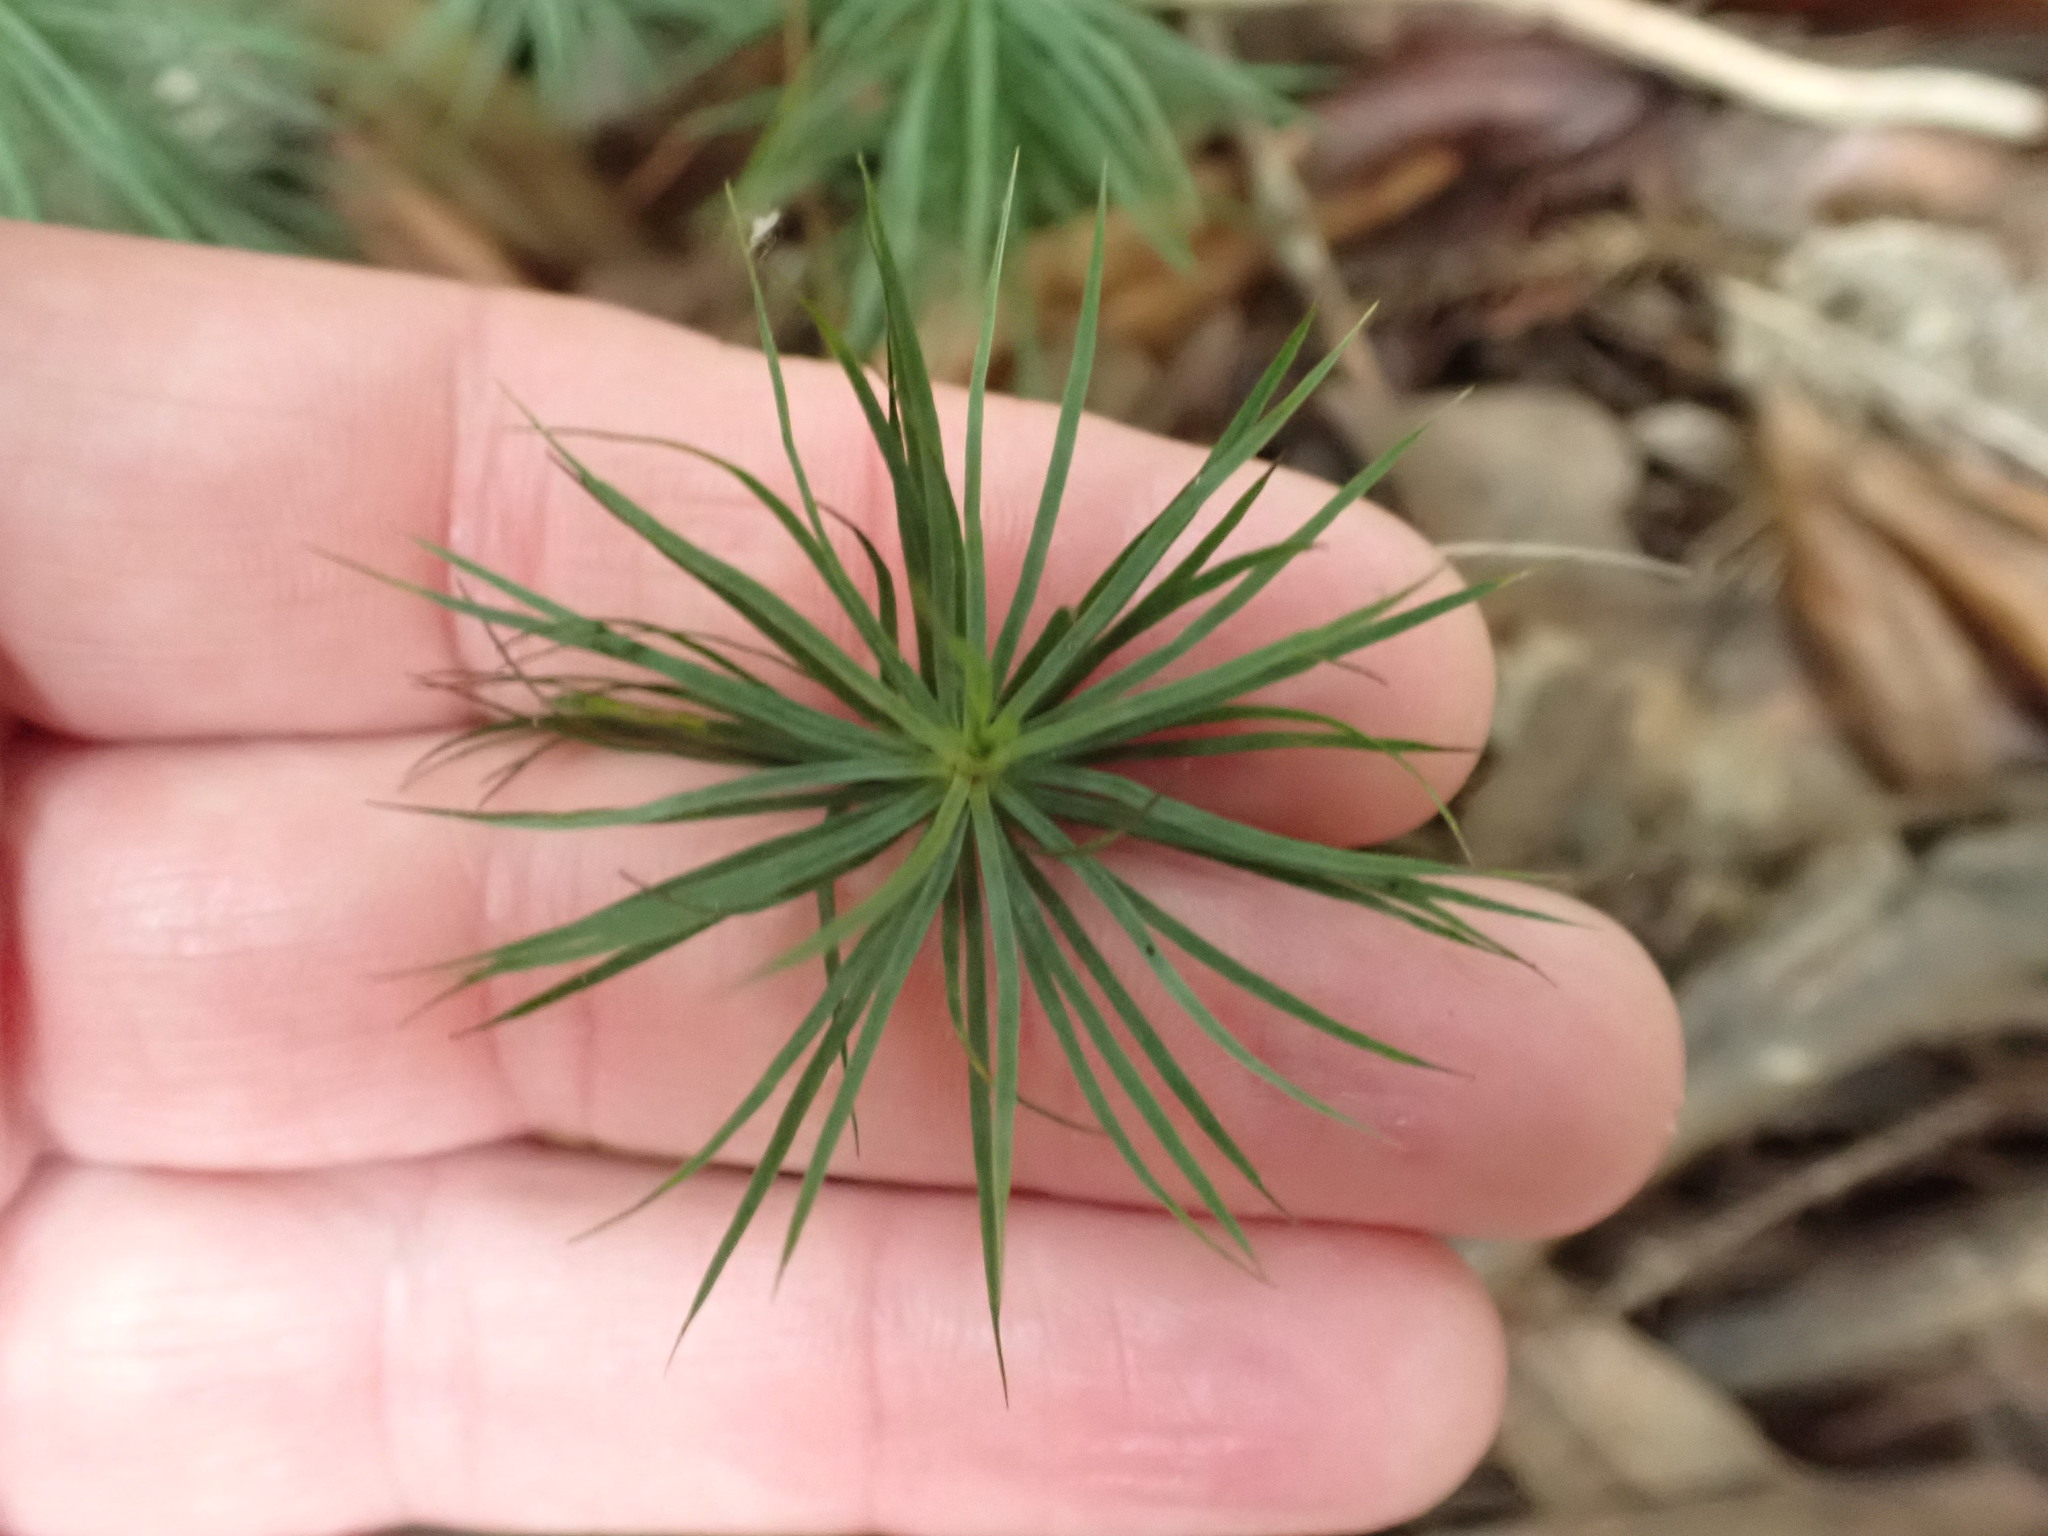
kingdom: Plantae
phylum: Bryophyta
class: Polytrichopsida
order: Polytrichales
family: Polytrichaceae
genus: Dawsonia
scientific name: Dawsonia superba
